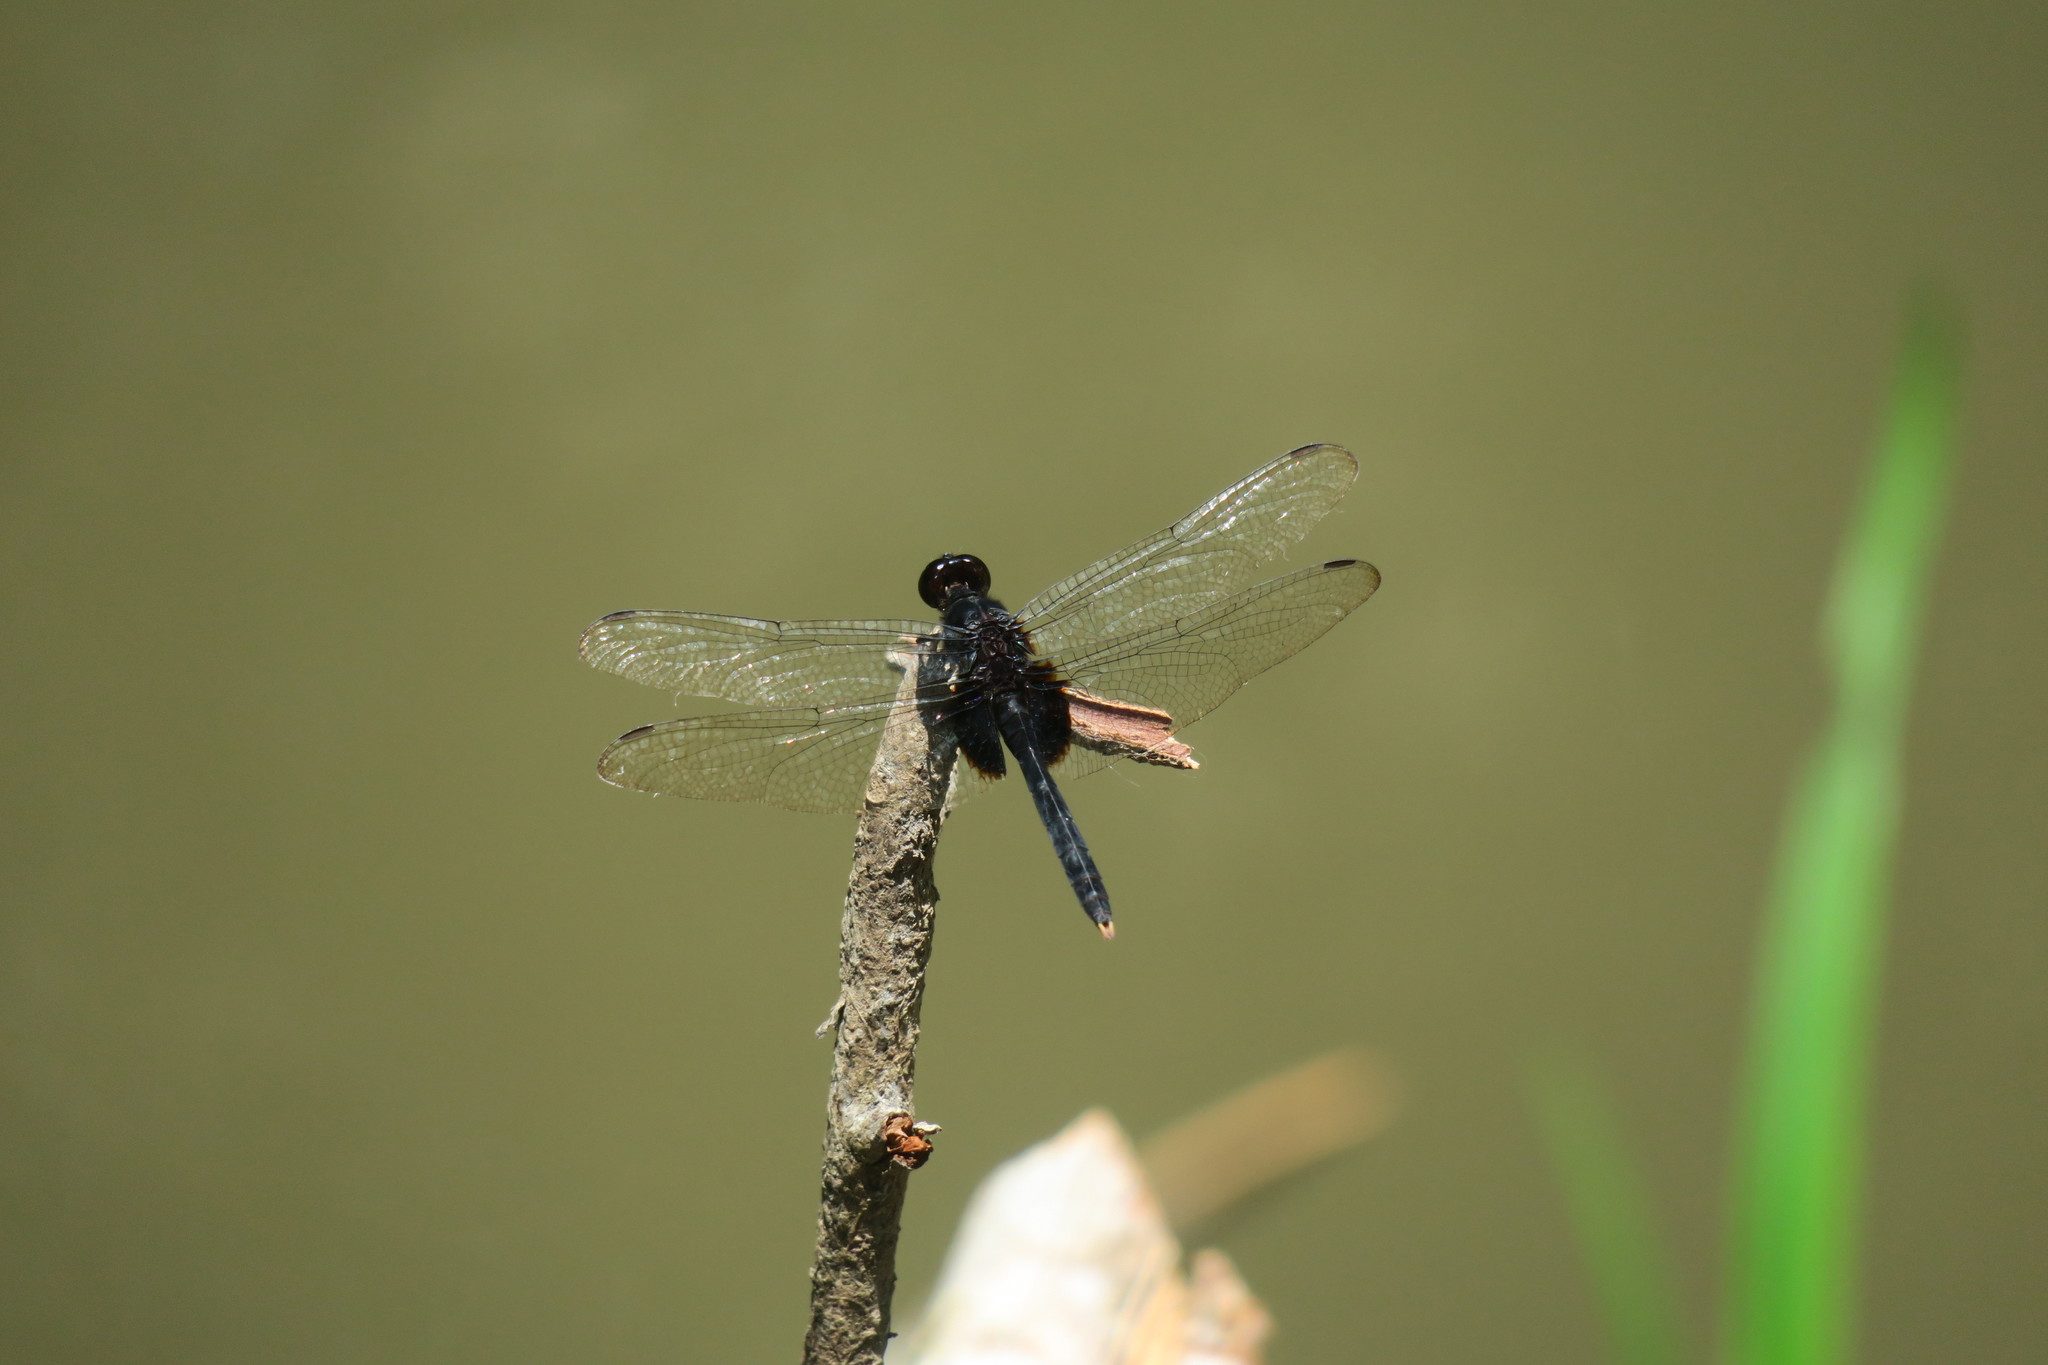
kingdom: Animalia
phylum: Arthropoda
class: Insecta
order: Odonata
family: Libellulidae
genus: Erythemis
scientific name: Erythemis attala
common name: Black pondhawk
